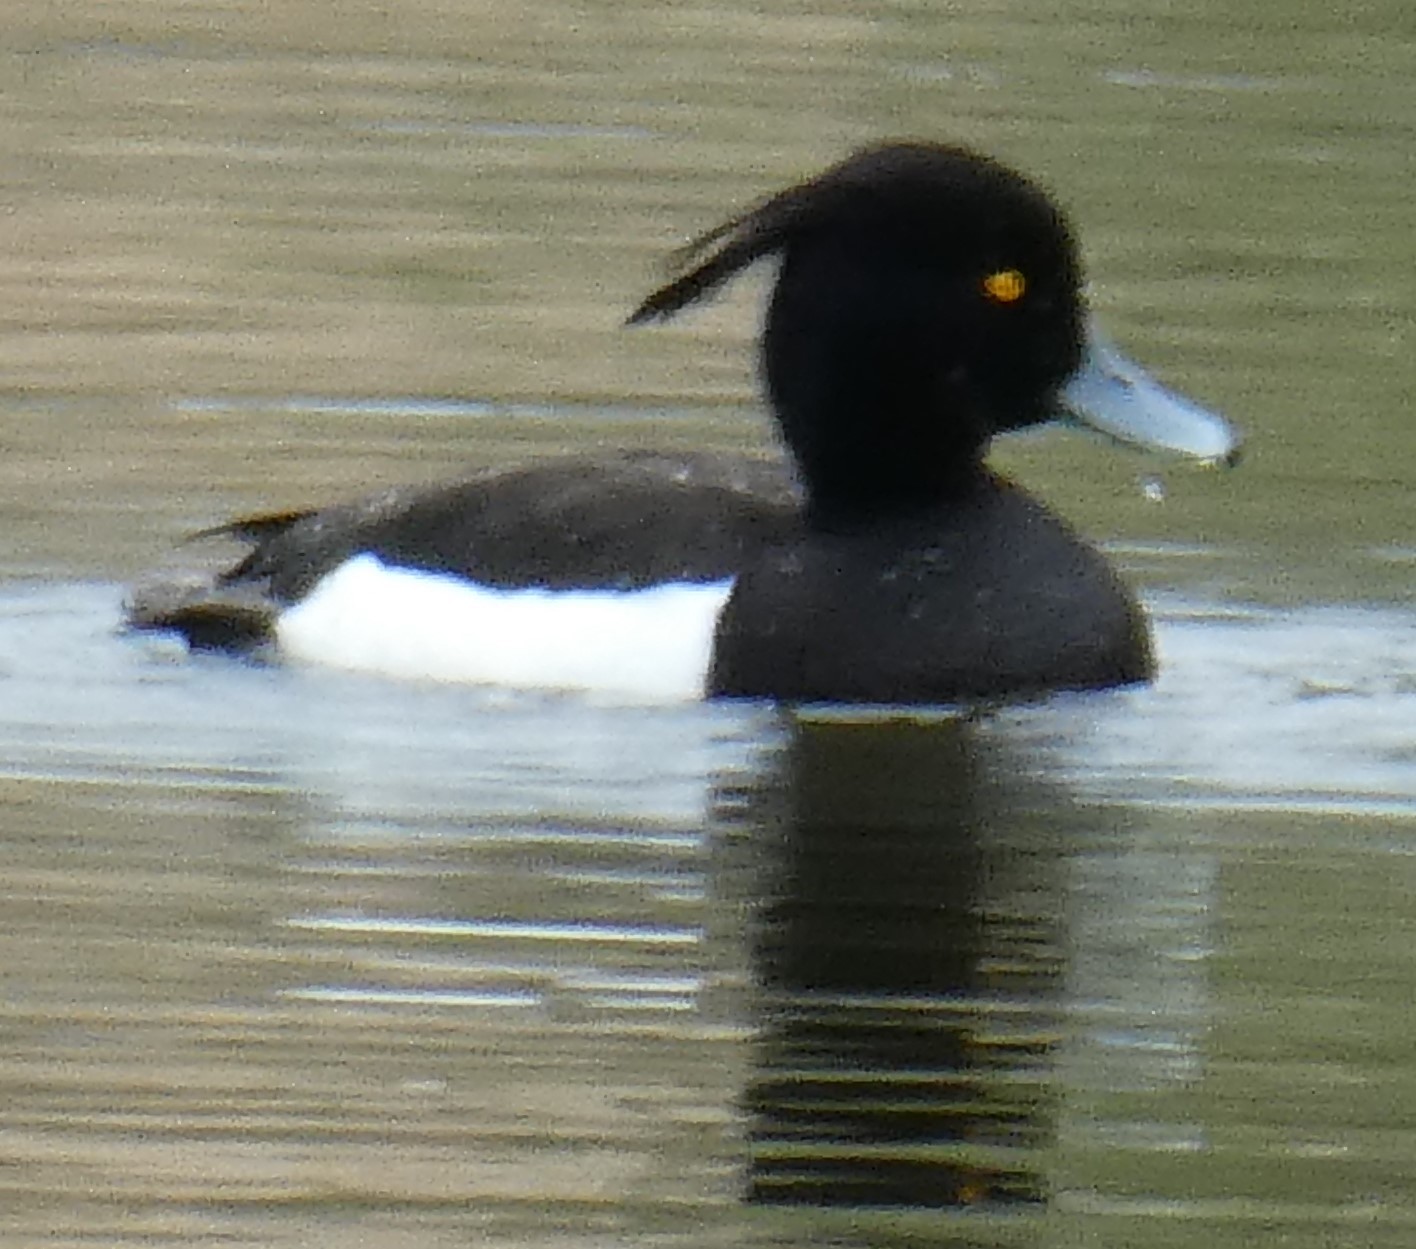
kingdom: Animalia
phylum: Chordata
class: Aves
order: Anseriformes
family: Anatidae
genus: Aythya
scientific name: Aythya fuligula
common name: Tufted duck
